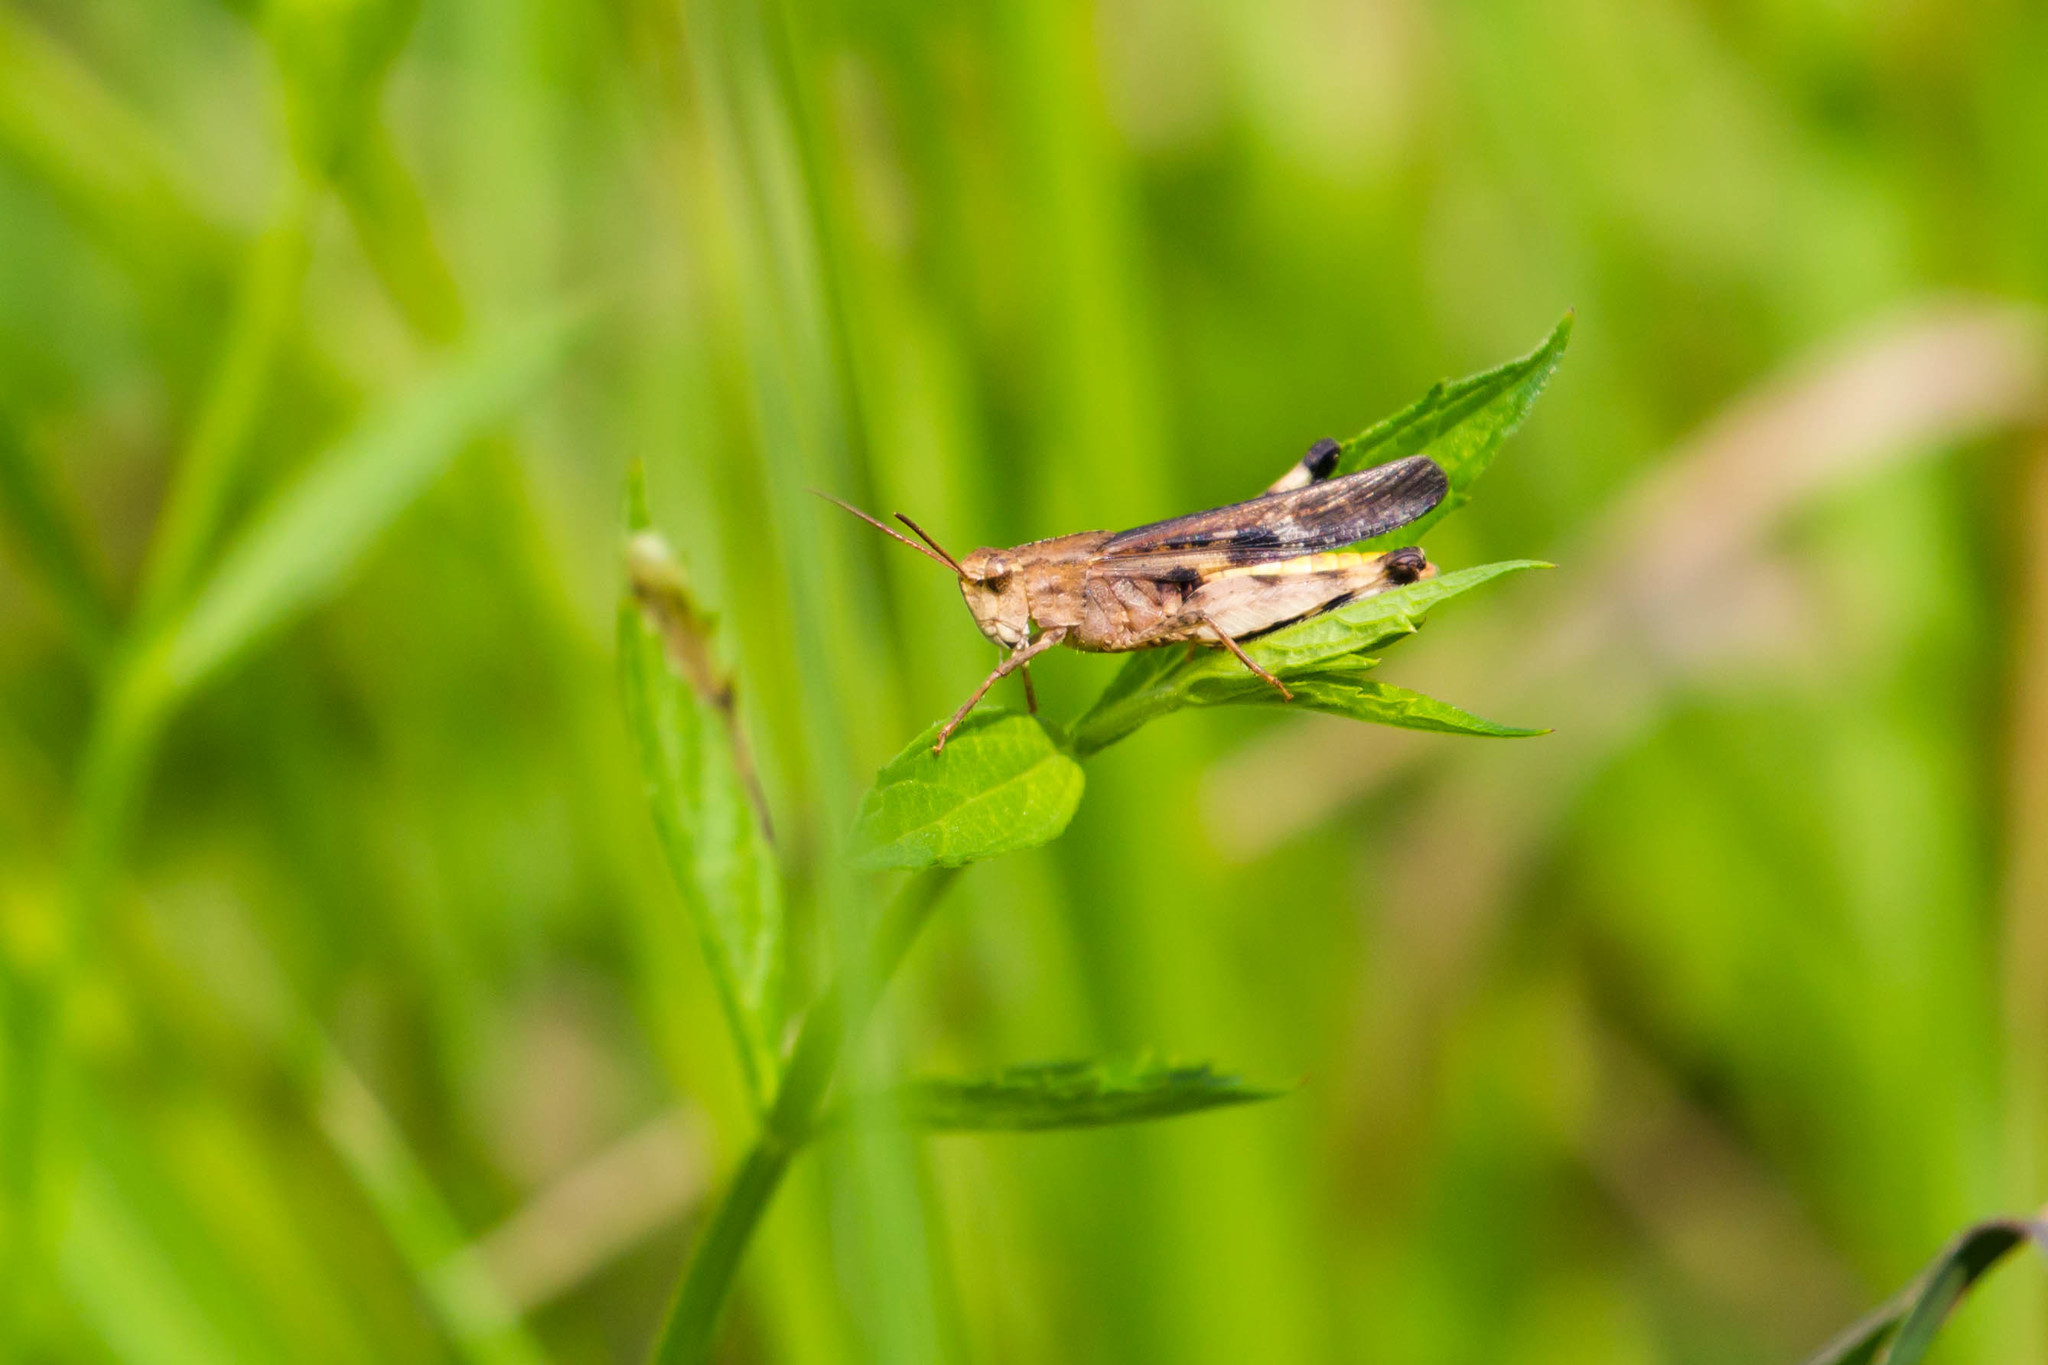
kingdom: Animalia
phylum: Arthropoda
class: Insecta
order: Orthoptera
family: Acrididae
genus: Chortophaga
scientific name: Chortophaga viridifasciata
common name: Green-striped grasshopper
